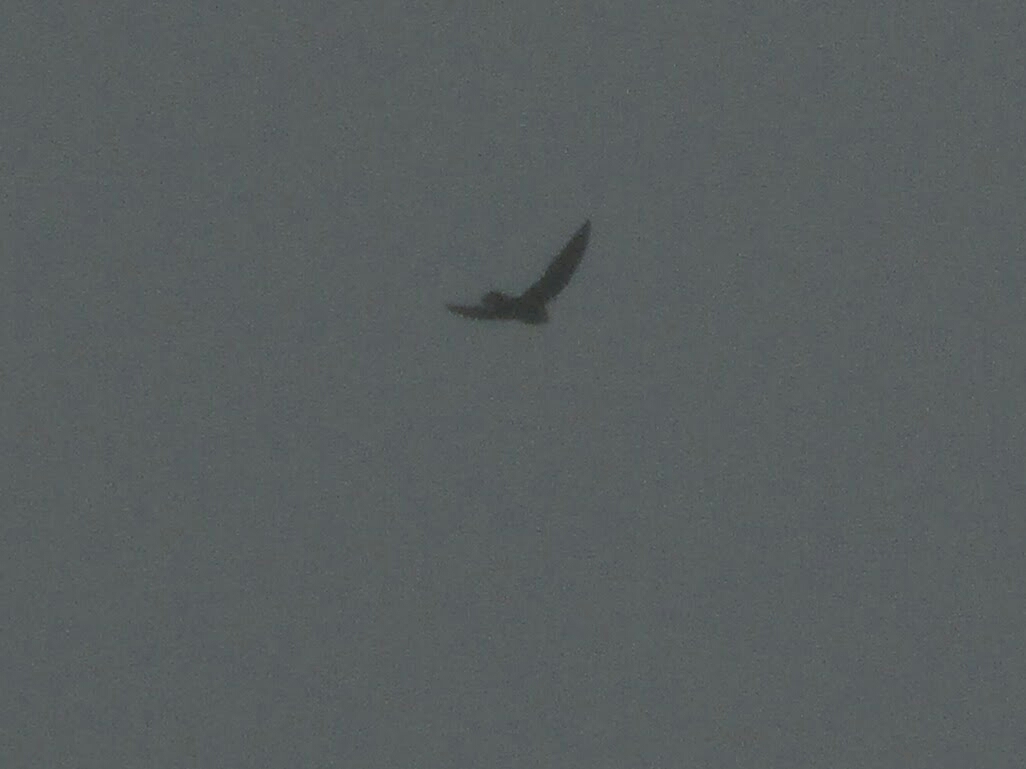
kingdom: Animalia
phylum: Chordata
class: Aves
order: Apodiformes
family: Apodidae
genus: Cypseloides
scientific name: Cypseloides senex
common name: Great dusky swift
